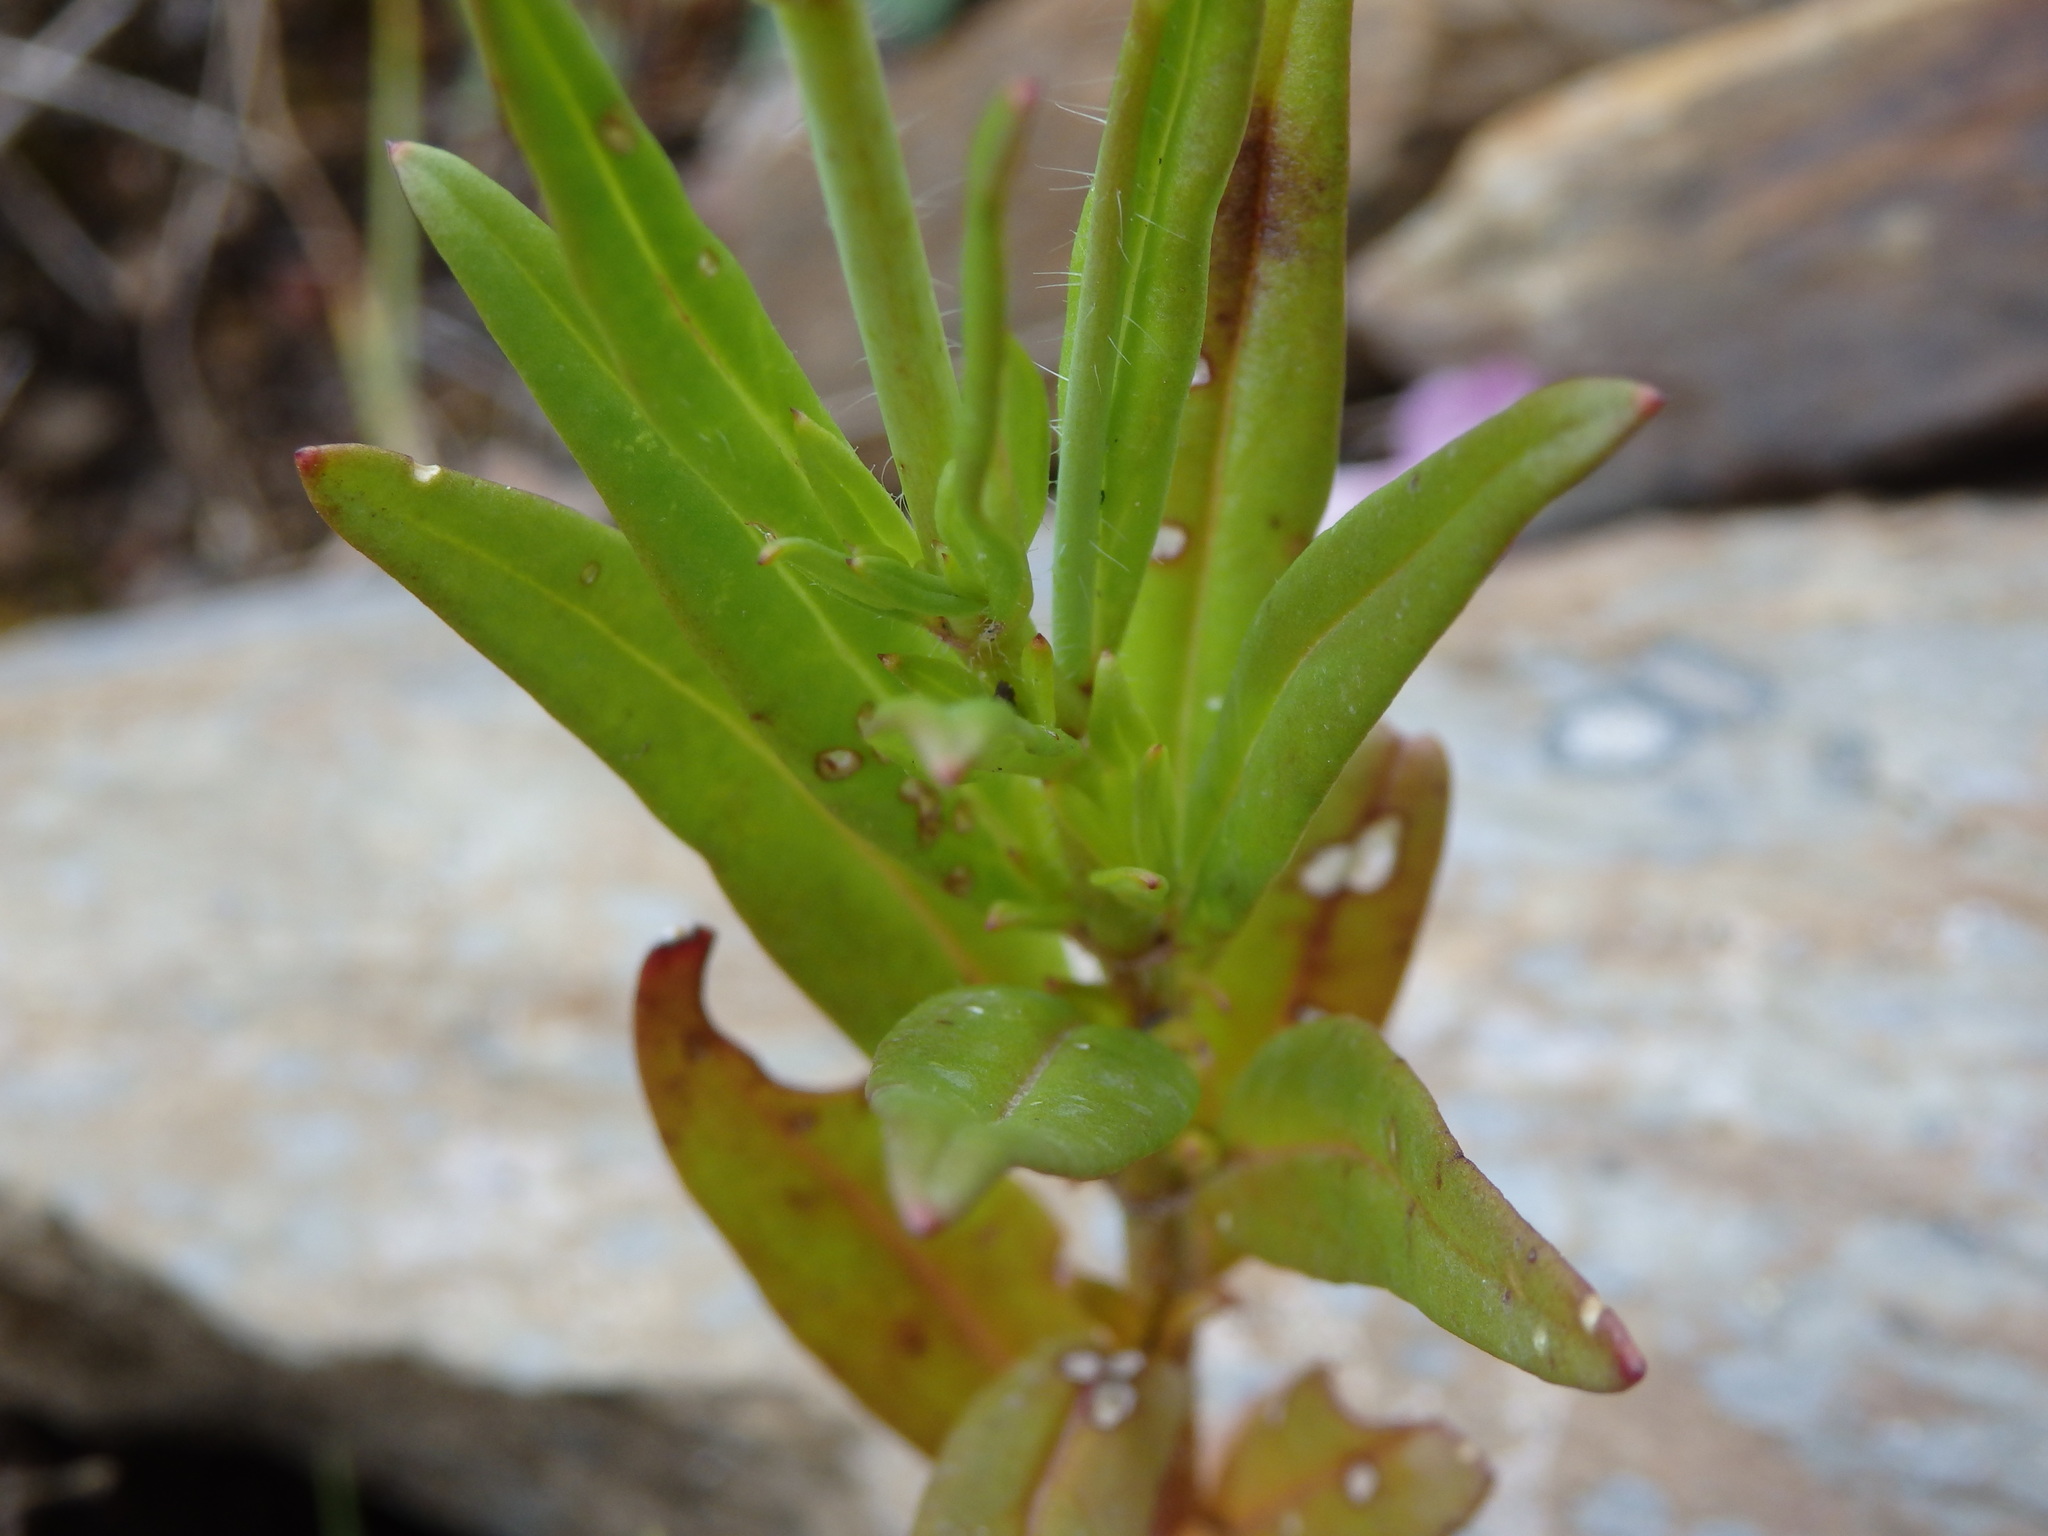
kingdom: Plantae
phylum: Tracheophyta
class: Magnoliopsida
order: Lamiales
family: Plantaginaceae
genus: Misopates
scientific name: Misopates orontium
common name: Weasel's-snout
